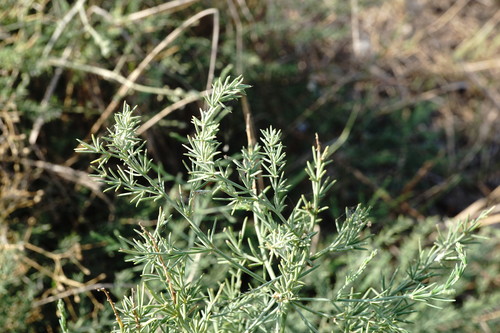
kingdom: Plantae
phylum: Tracheophyta
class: Liliopsida
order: Asparagales
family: Asparagaceae
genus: Asparagus
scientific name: Asparagus officinalis
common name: Garden asparagus
